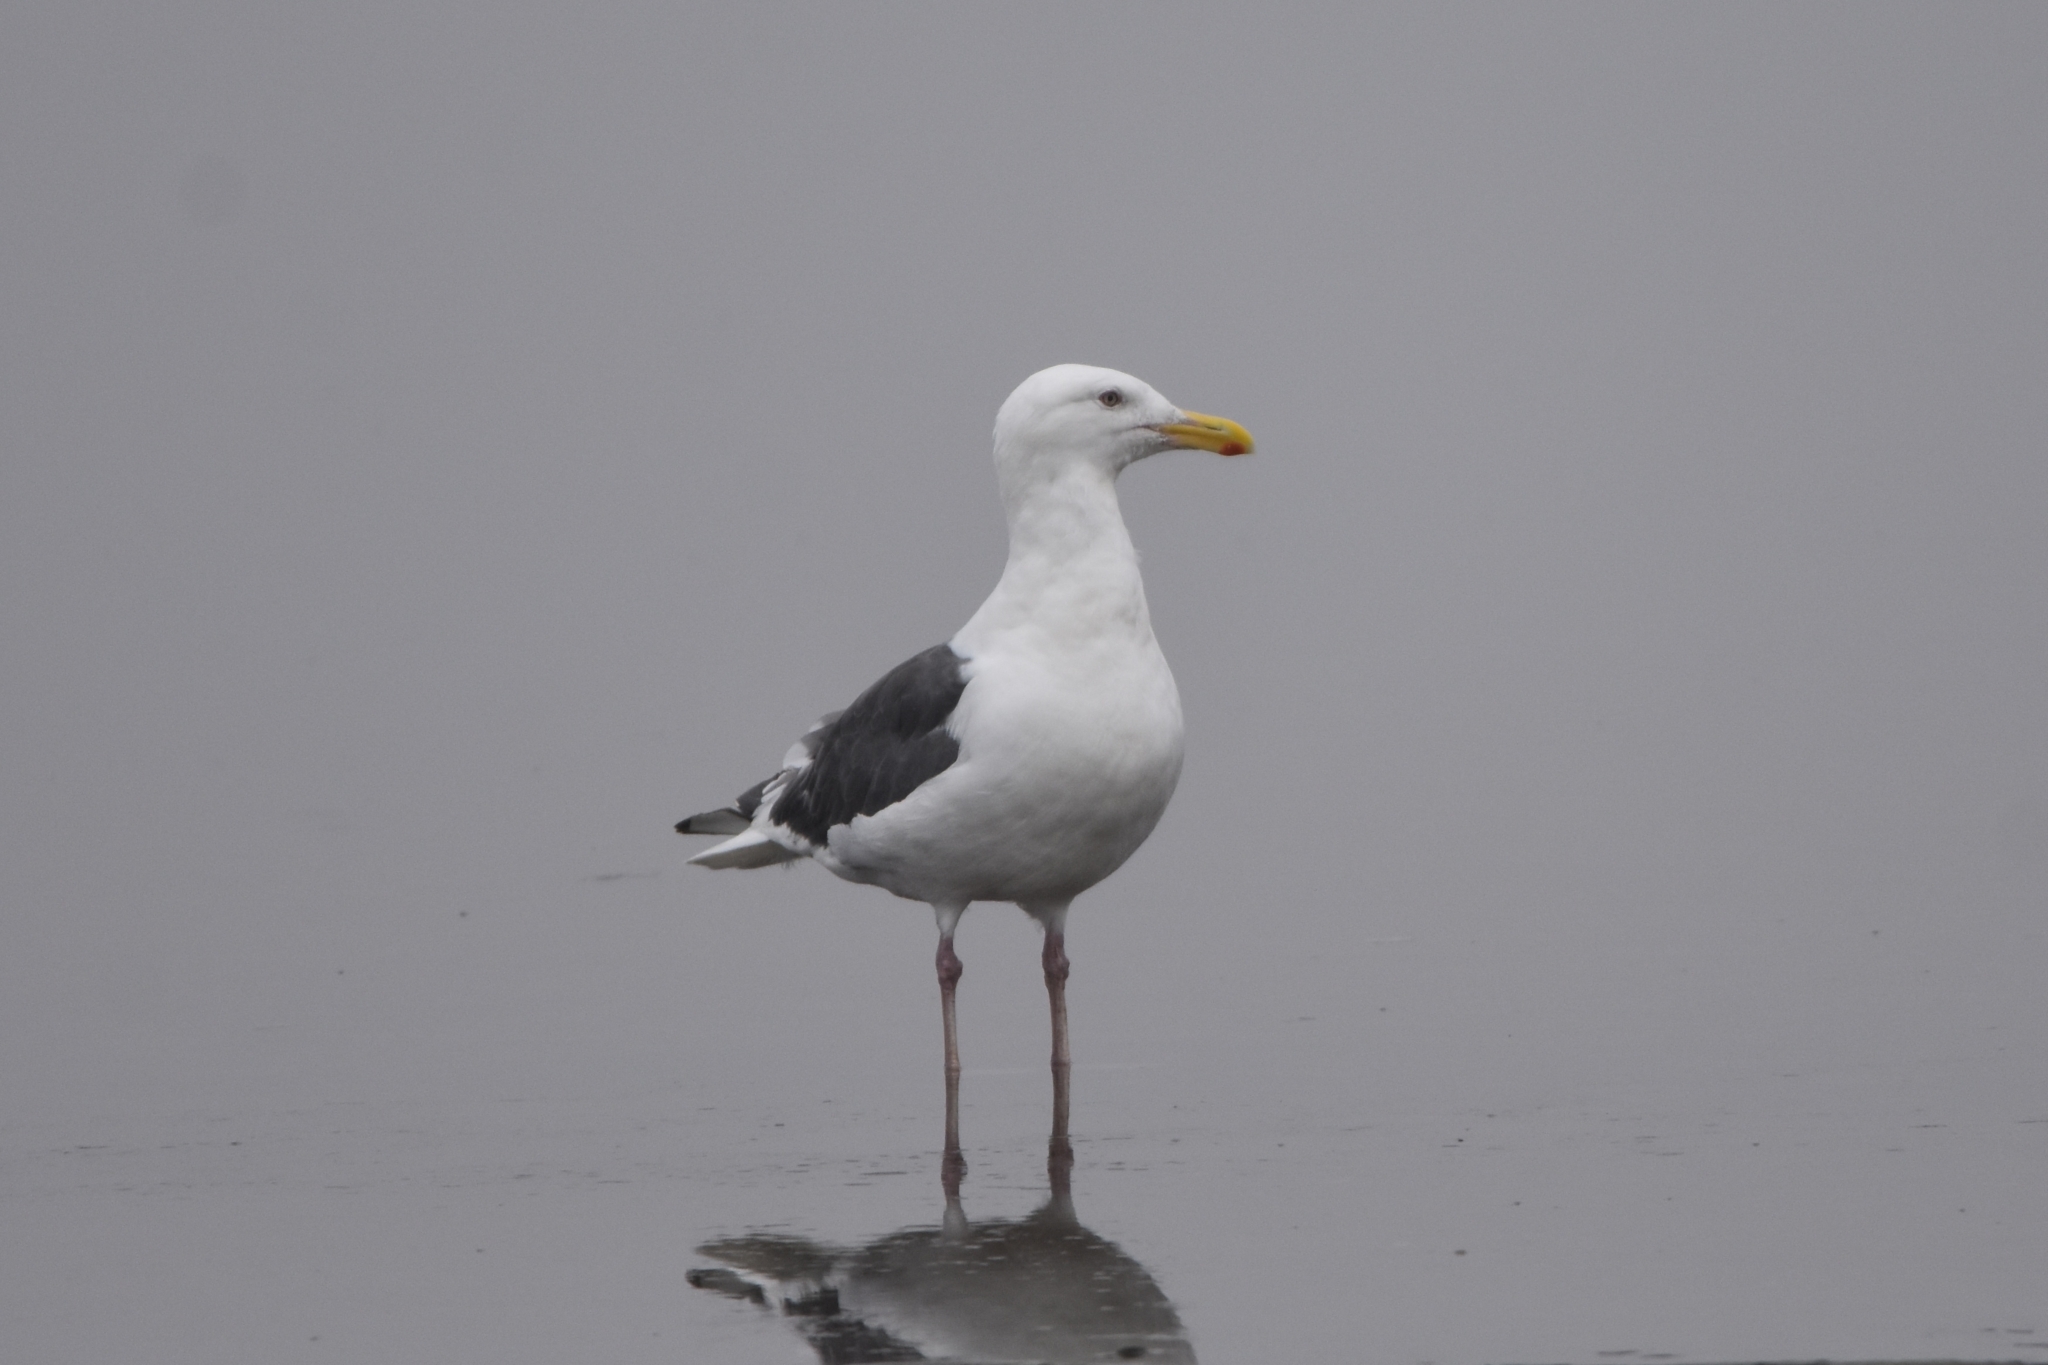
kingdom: Animalia
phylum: Chordata
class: Aves
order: Charadriiformes
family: Laridae
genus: Larus
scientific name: Larus schistisagus
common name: Slaty-backed gull
